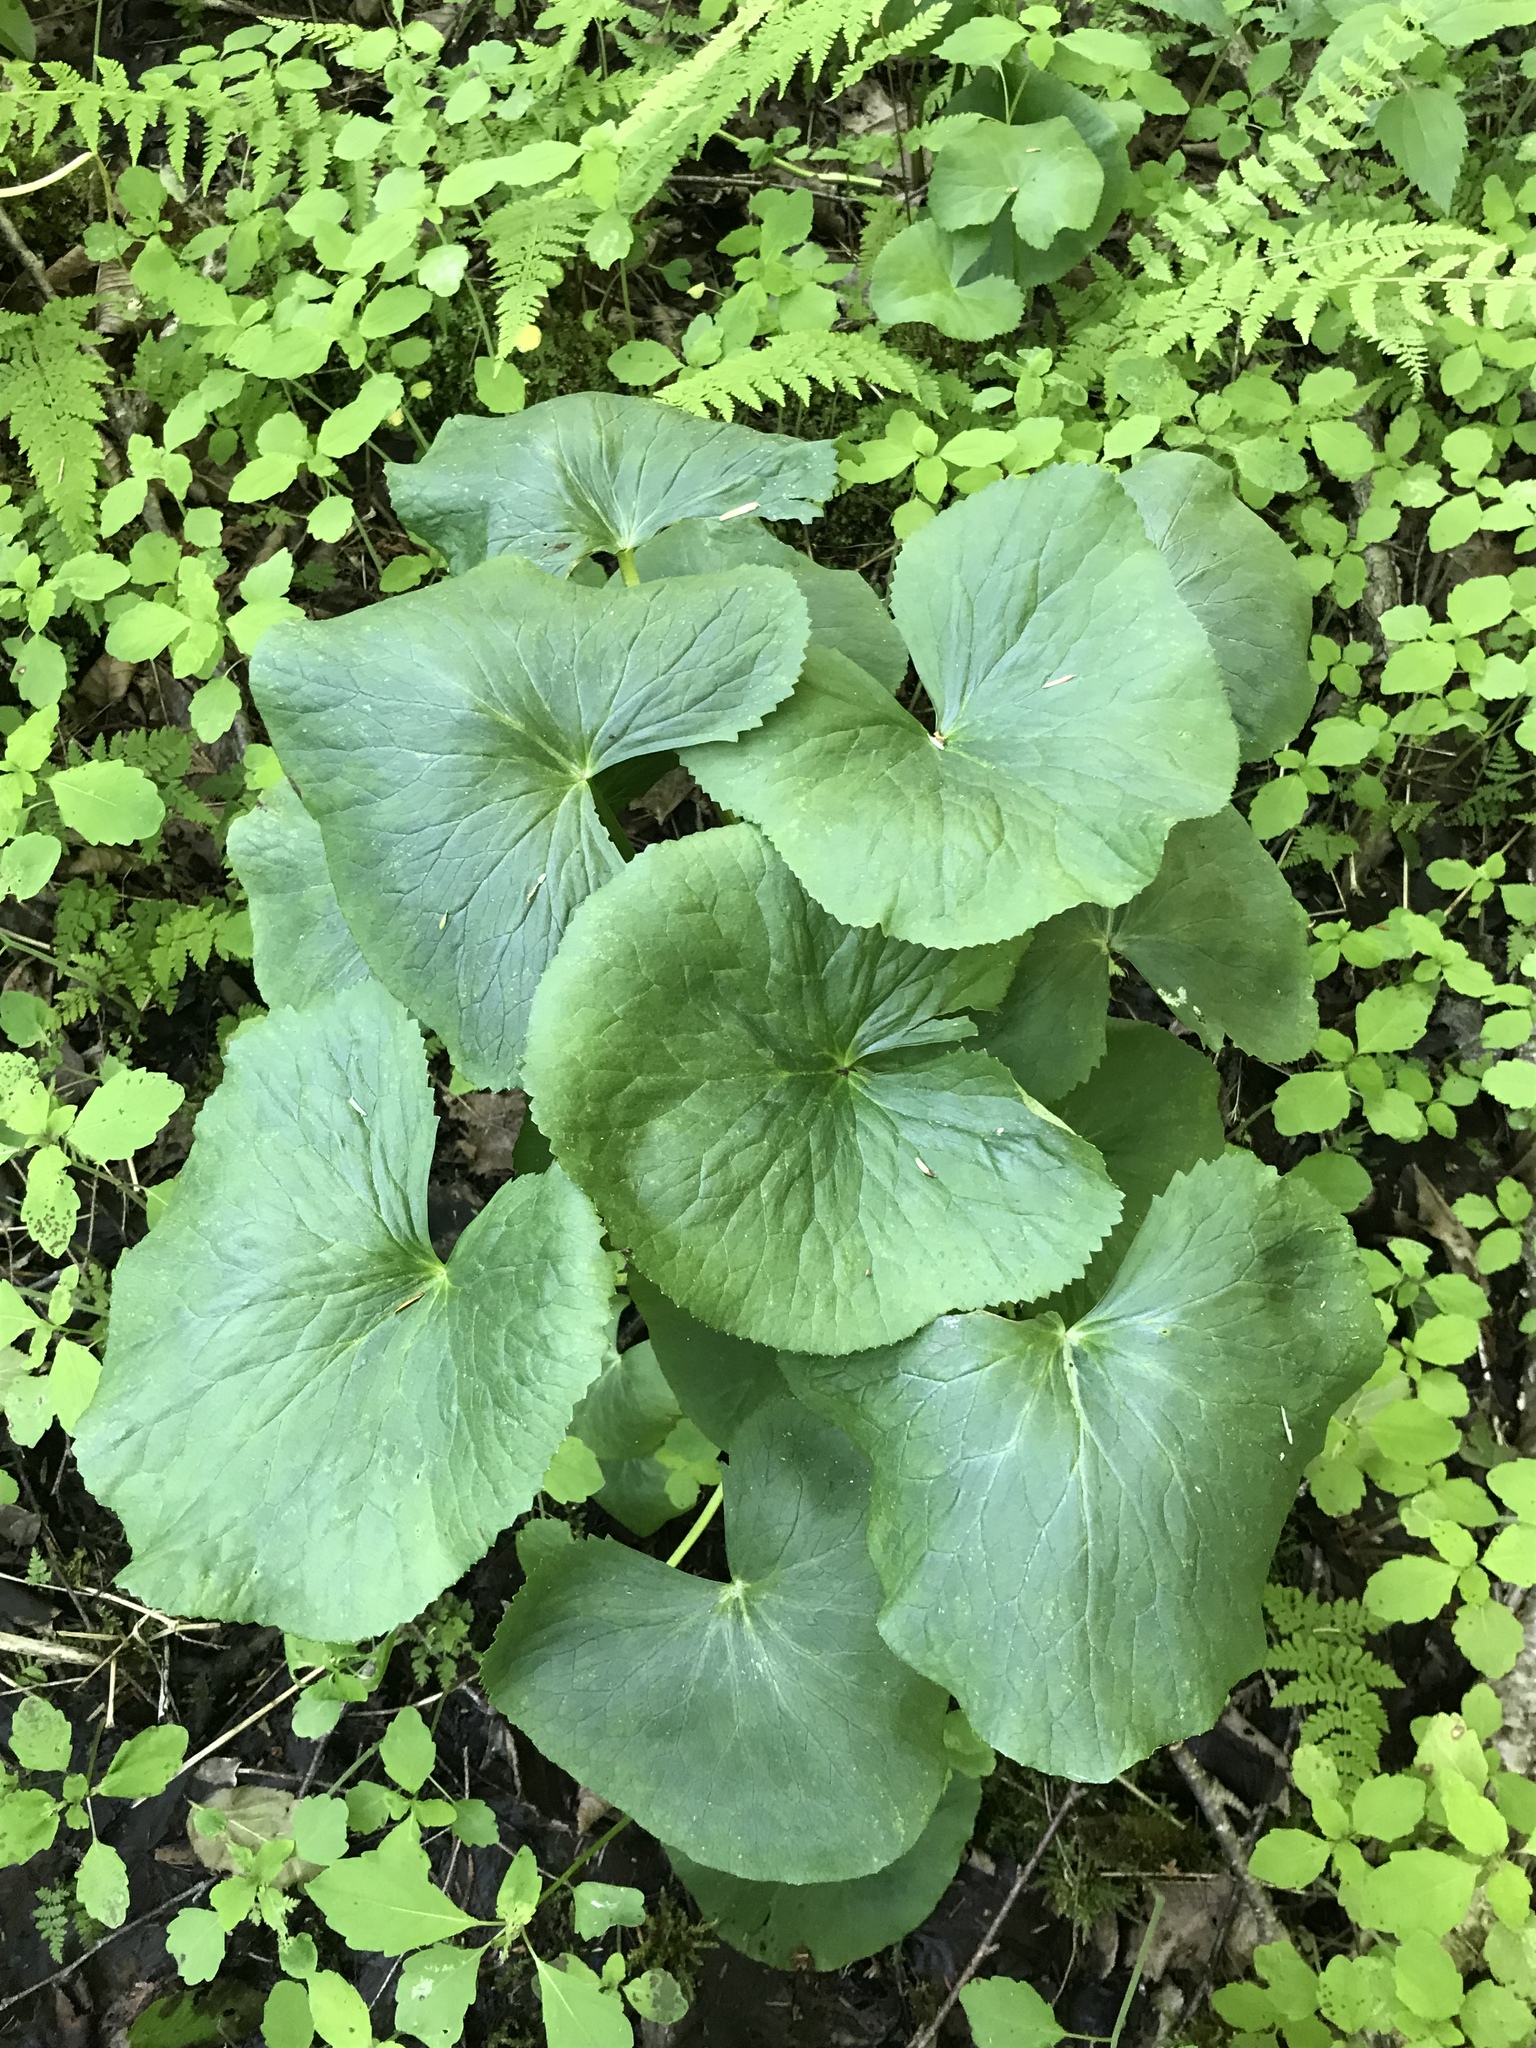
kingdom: Plantae
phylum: Tracheophyta
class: Magnoliopsida
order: Ranunculales
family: Ranunculaceae
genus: Caltha
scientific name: Caltha palustris
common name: Marsh marigold
